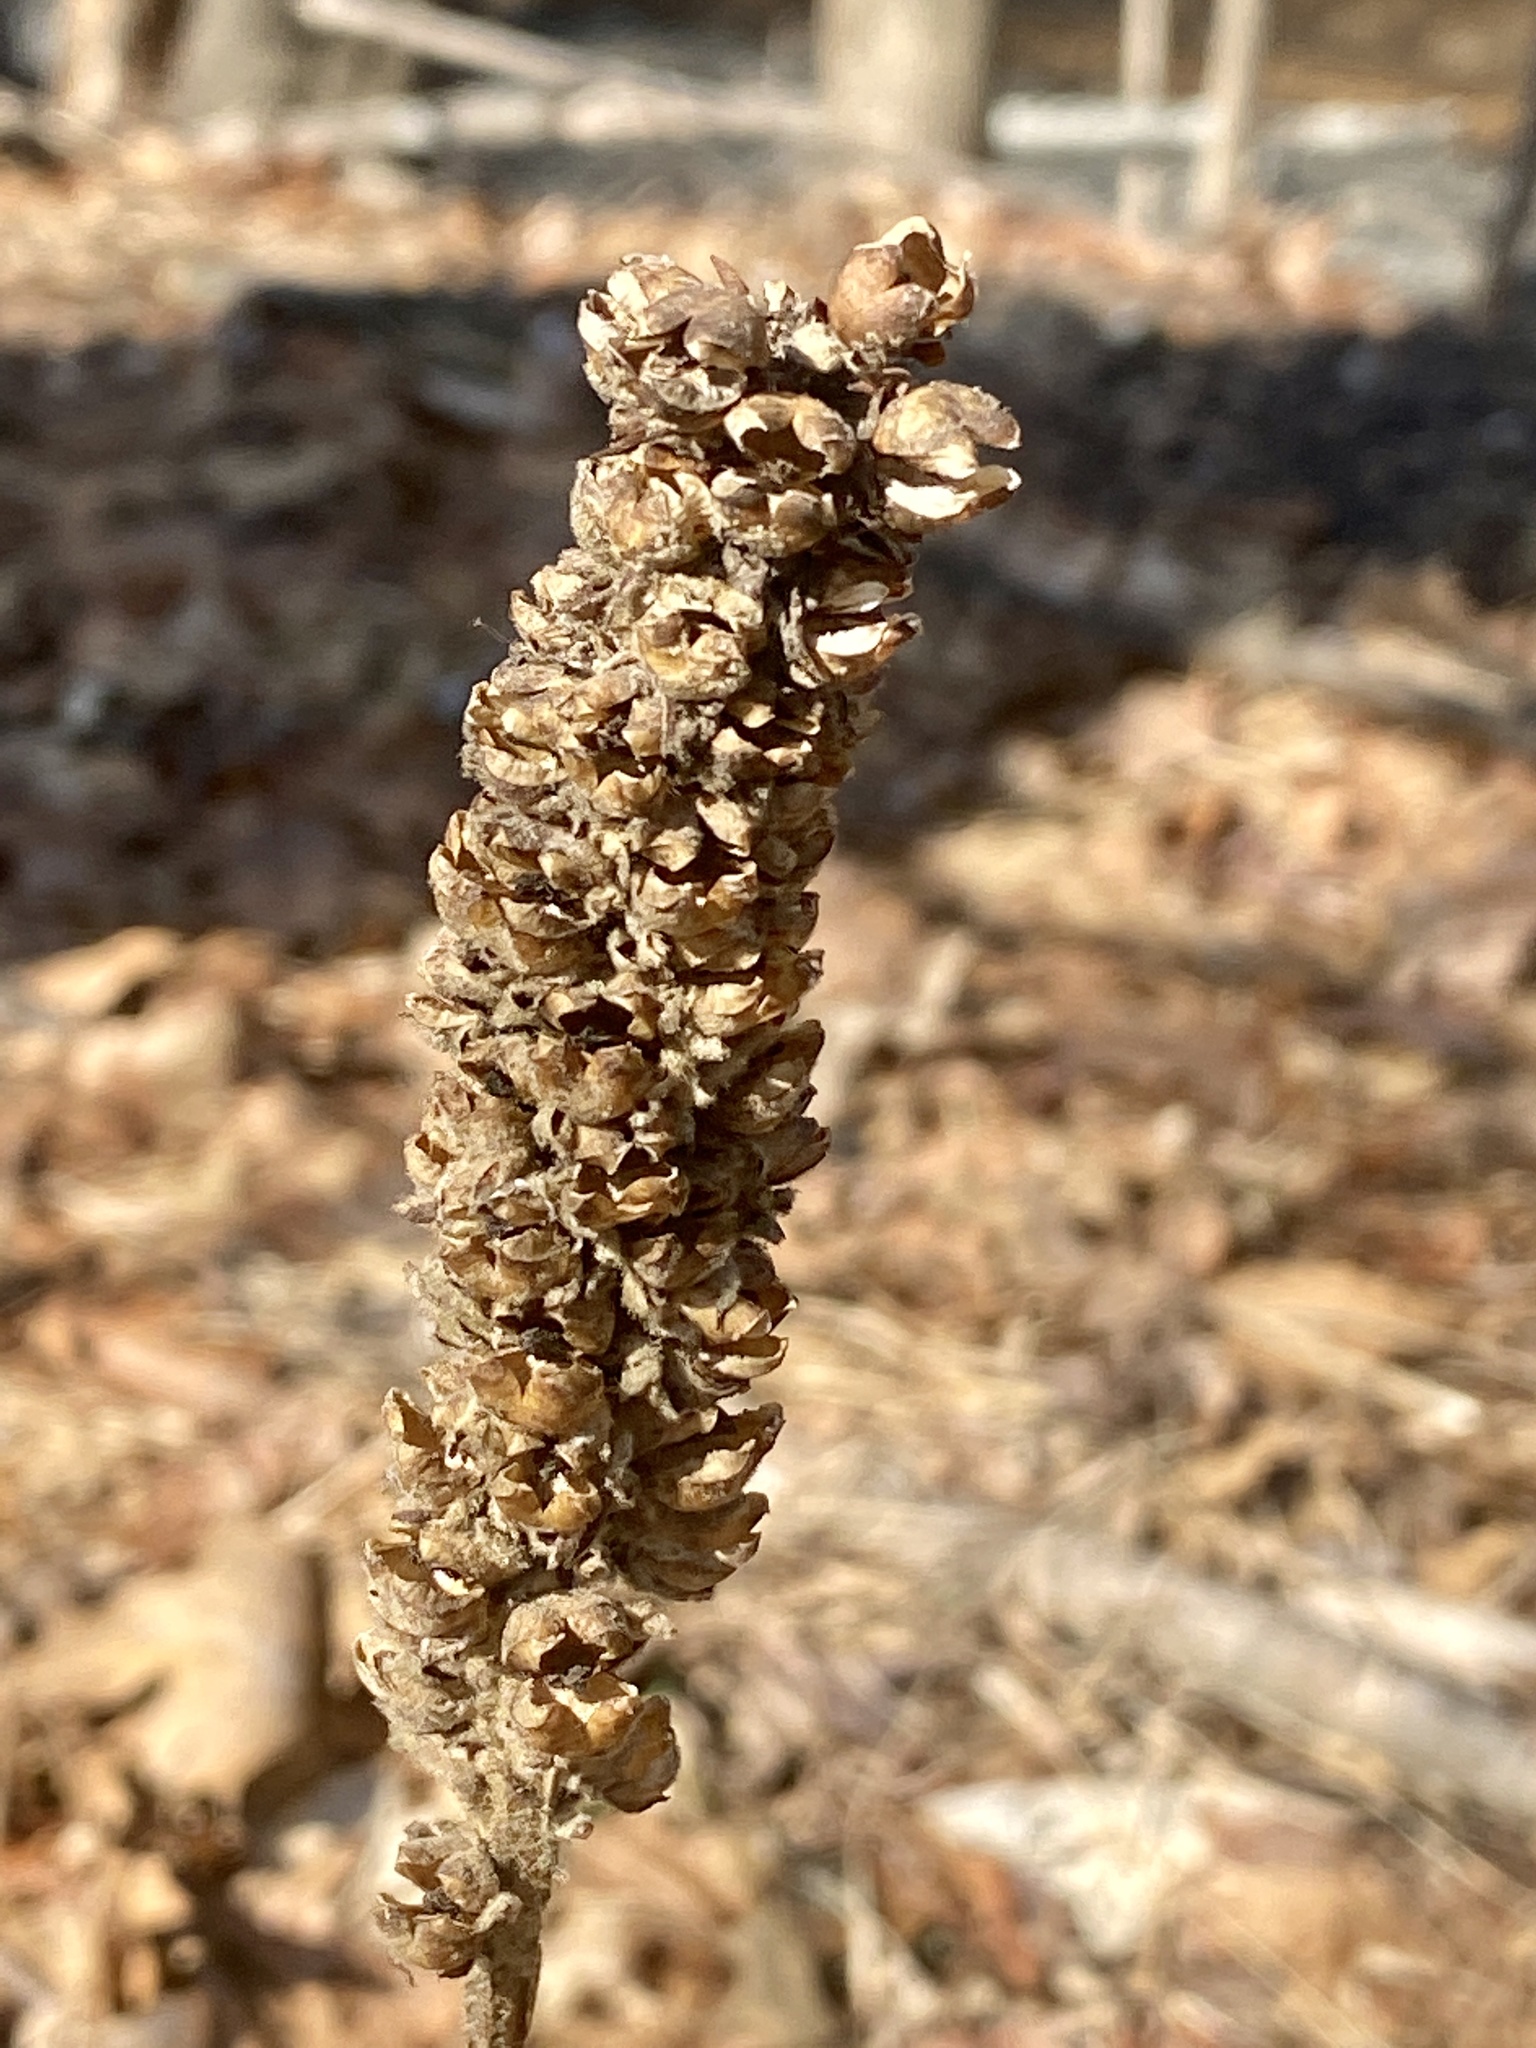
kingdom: Plantae
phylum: Tracheophyta
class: Magnoliopsida
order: Lamiales
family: Scrophulariaceae
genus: Verbascum
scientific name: Verbascum thapsus
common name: Common mullein
